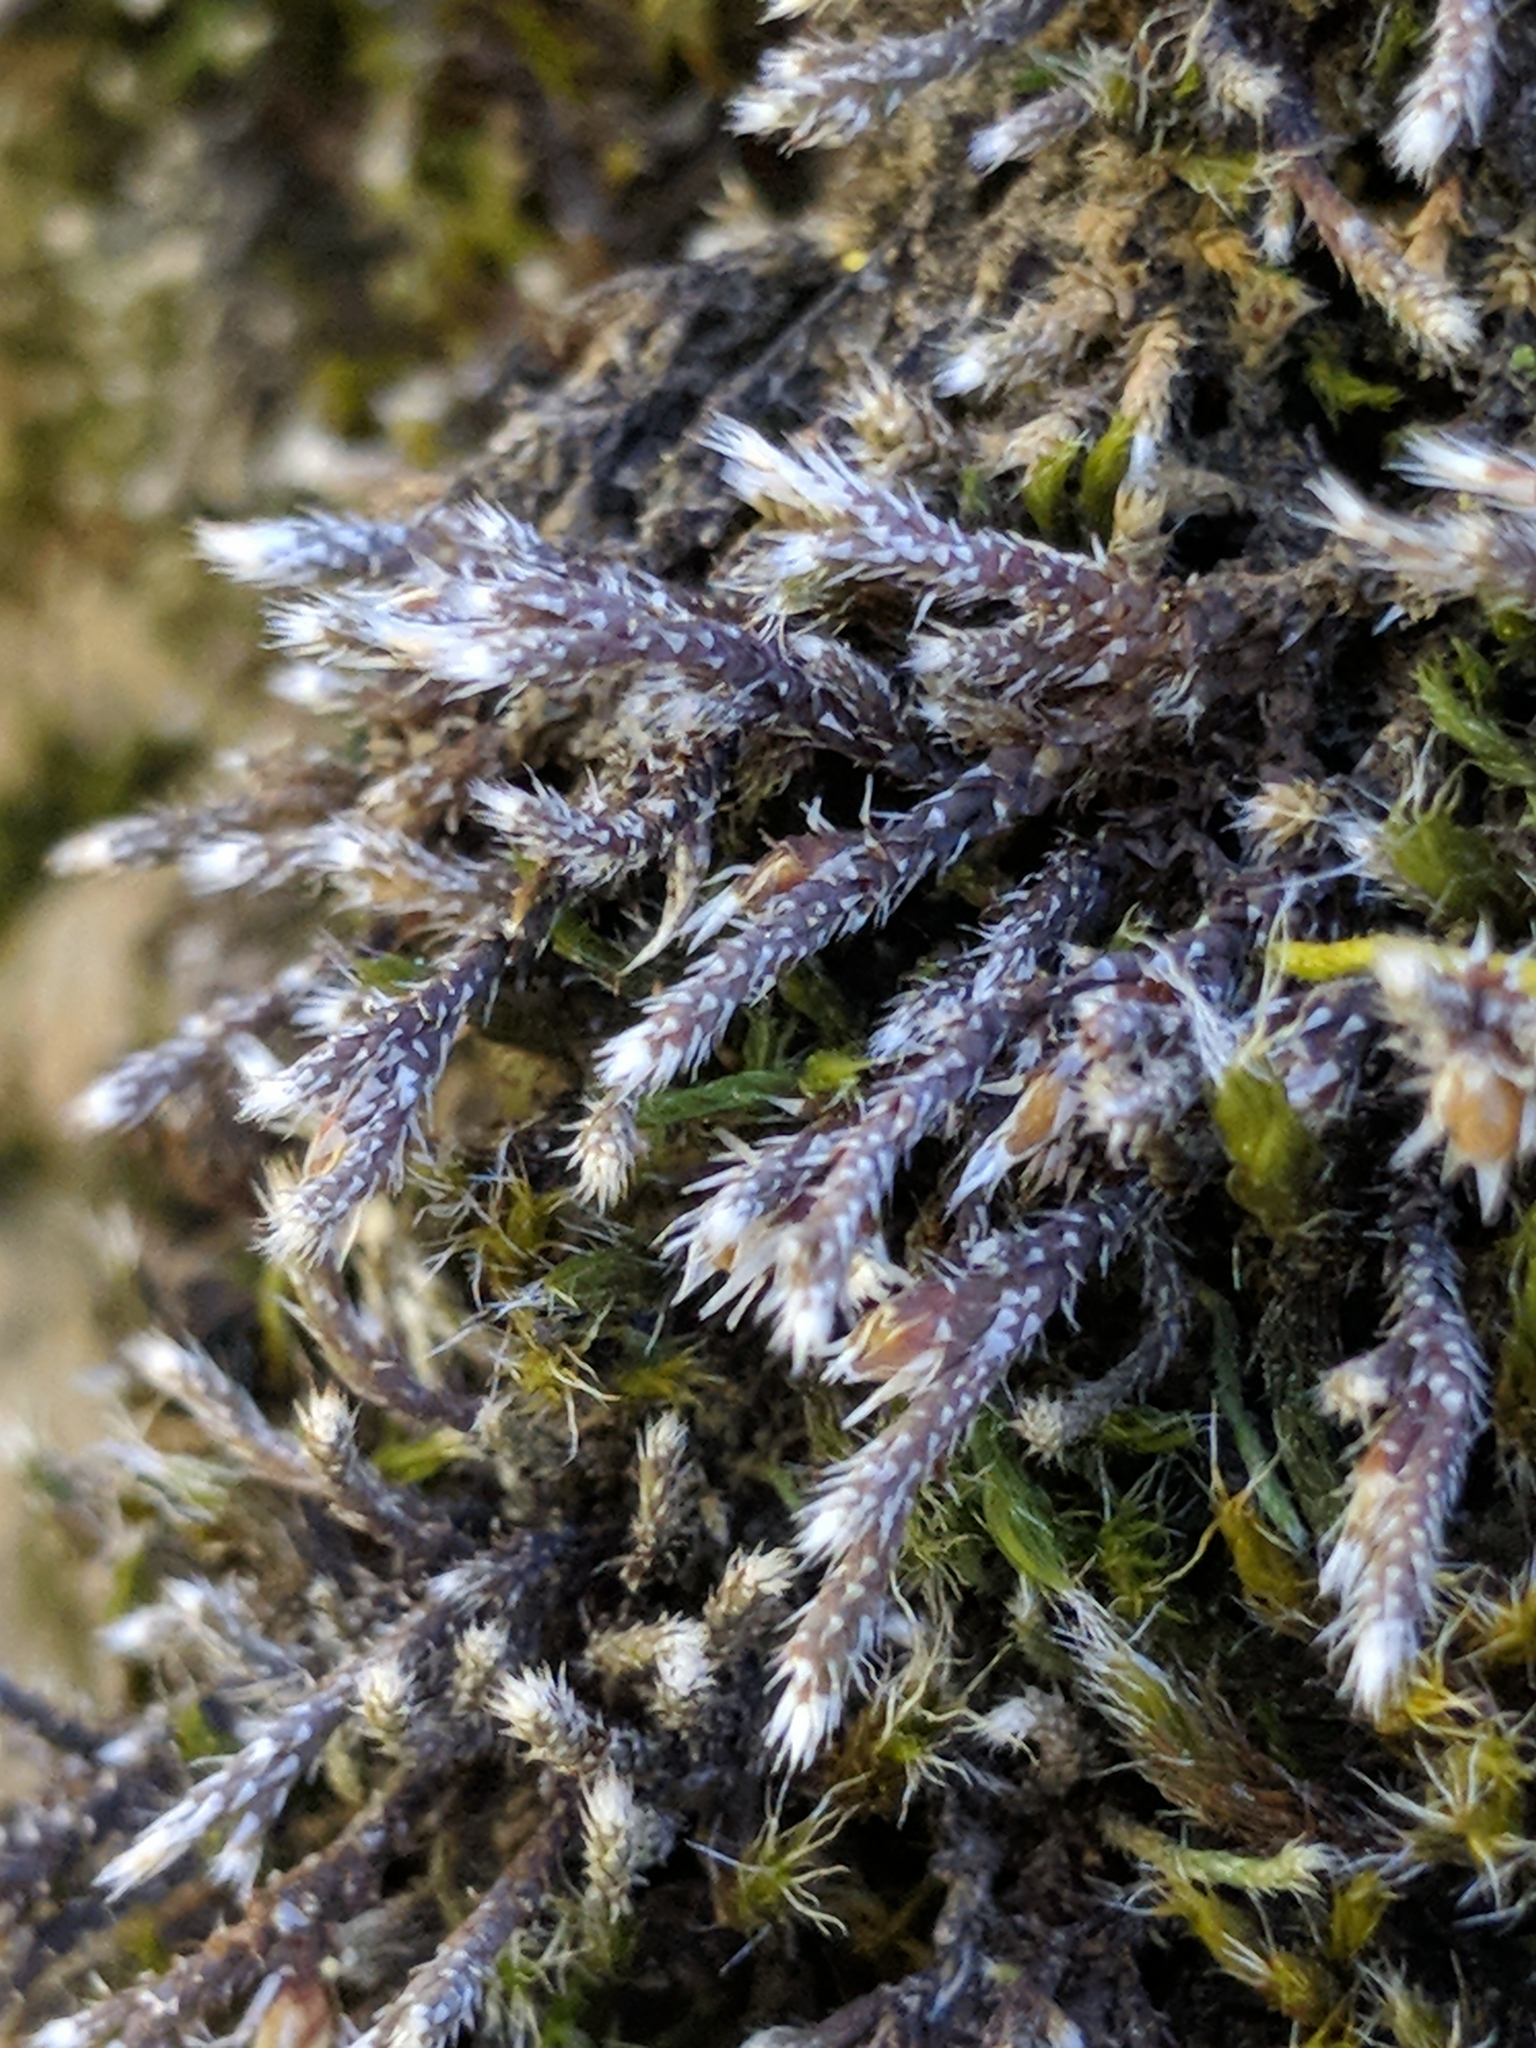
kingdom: Plantae
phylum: Bryophyta
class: Bryopsida
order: Hedwigiales
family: Hedwigiaceae
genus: Hedwigia
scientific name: Hedwigia detonsa
